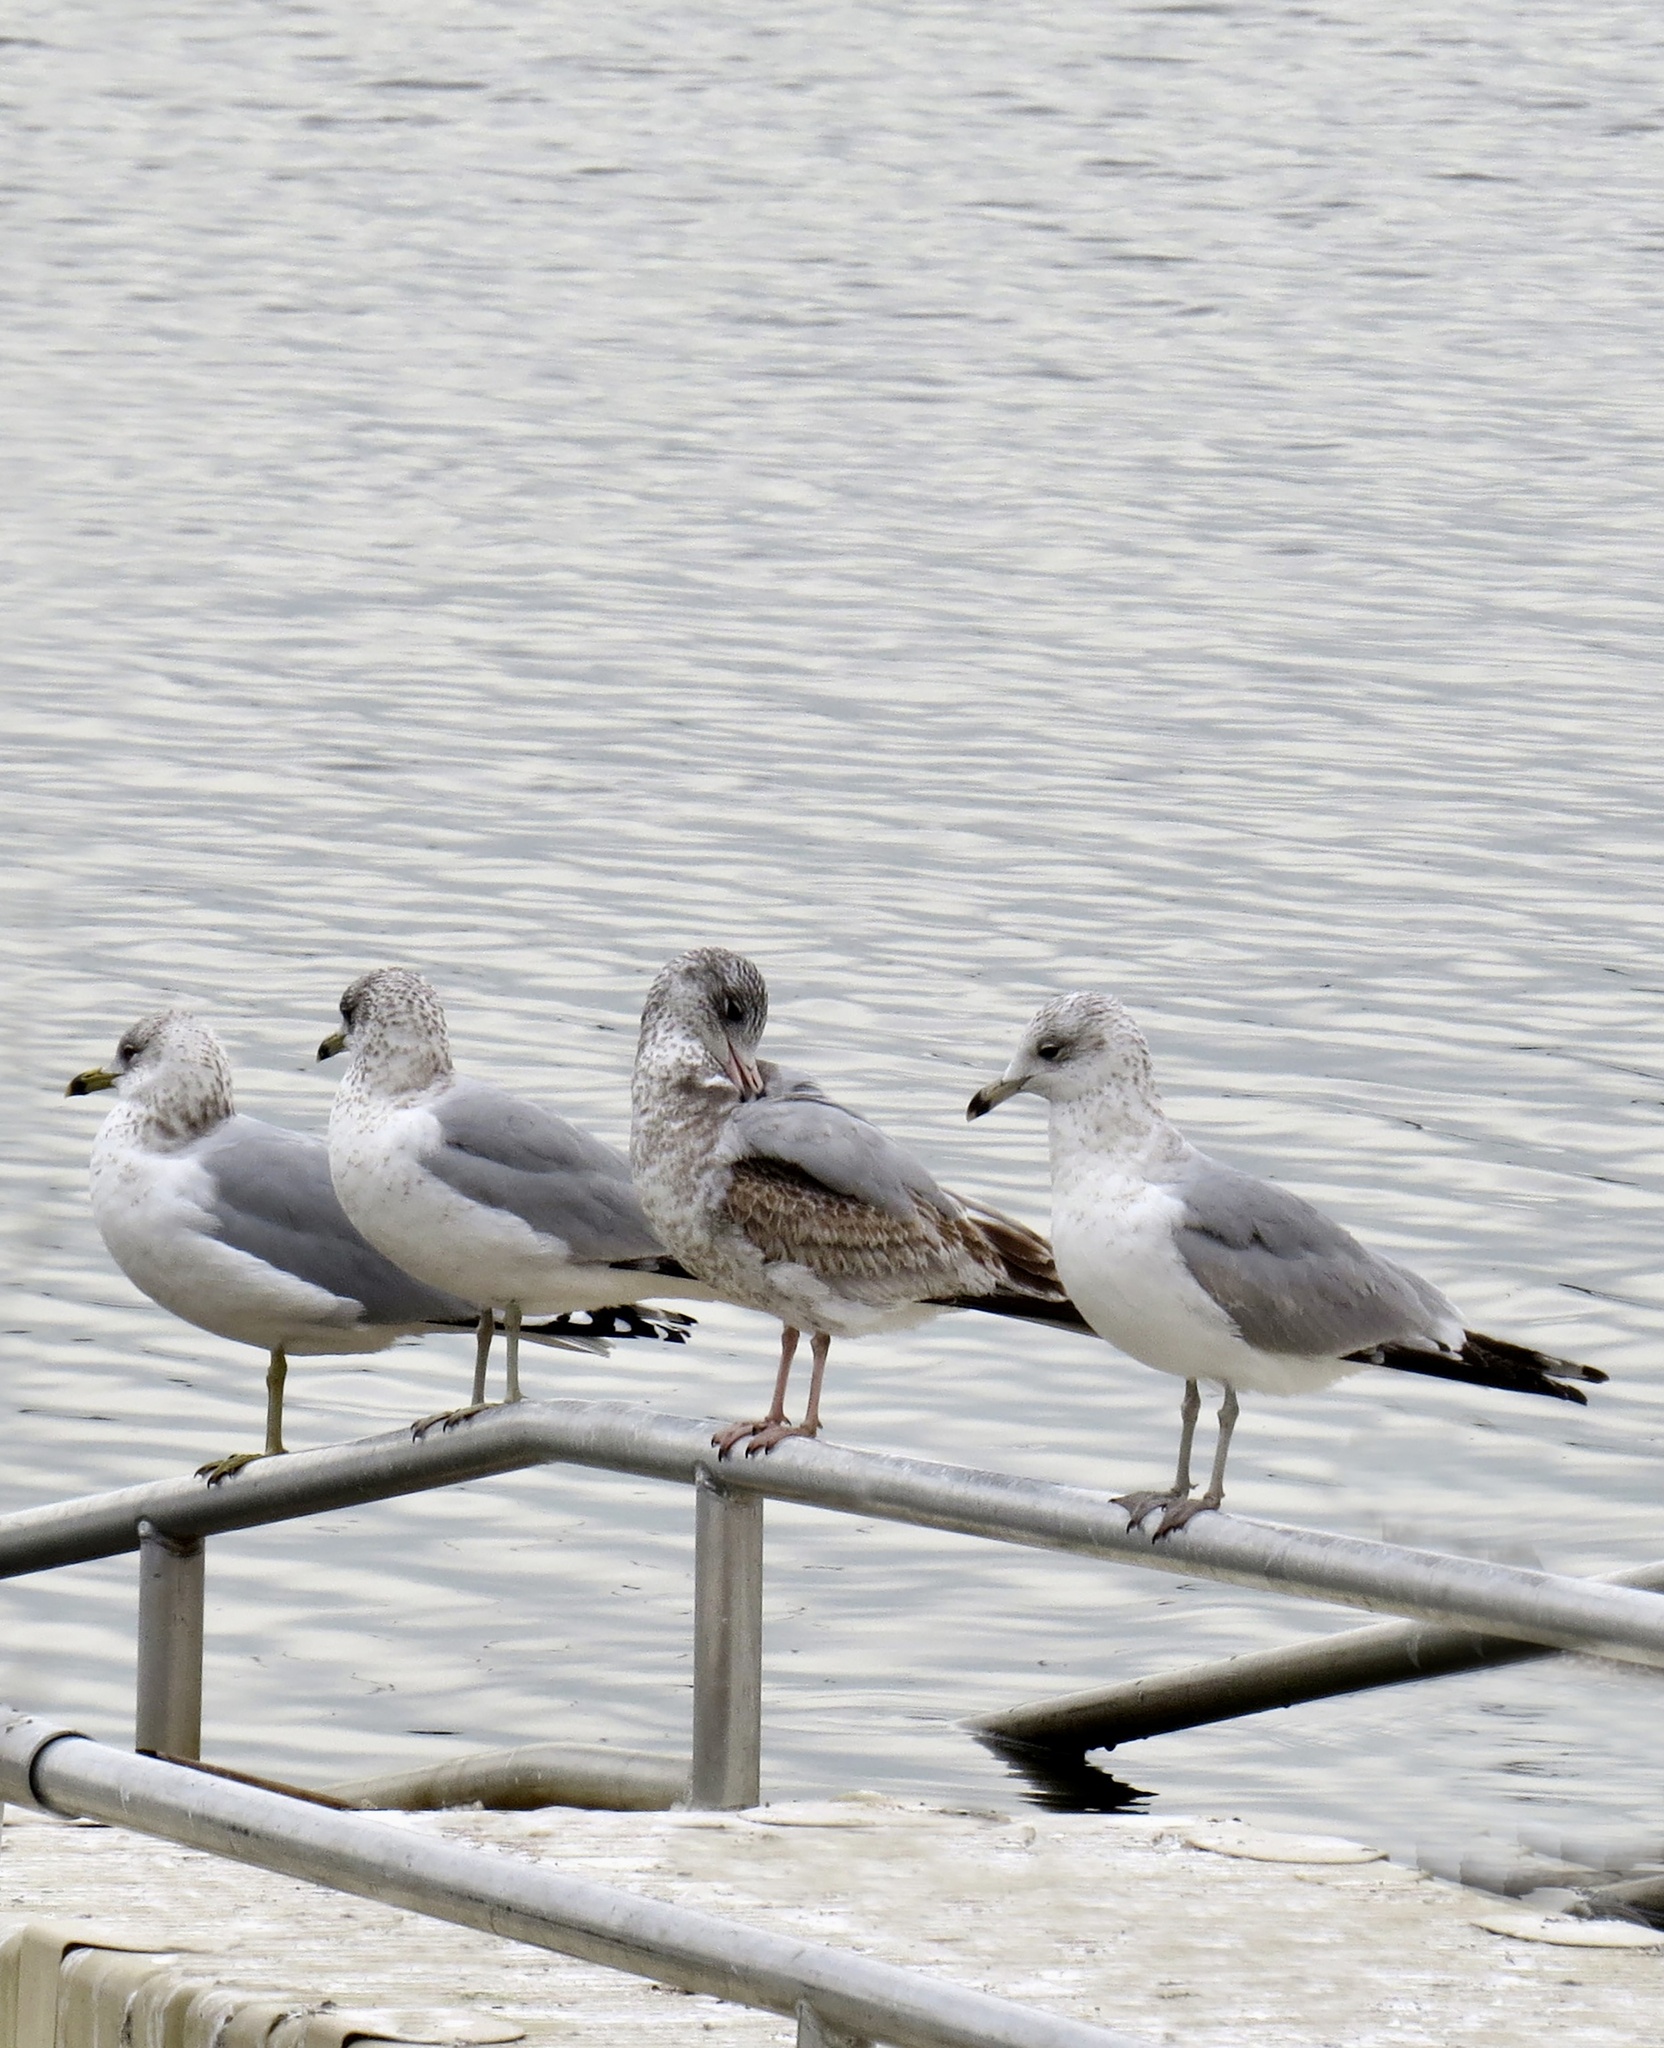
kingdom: Animalia
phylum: Chordata
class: Aves
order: Charadriiformes
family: Laridae
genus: Larus
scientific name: Larus delawarensis
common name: Ring-billed gull
